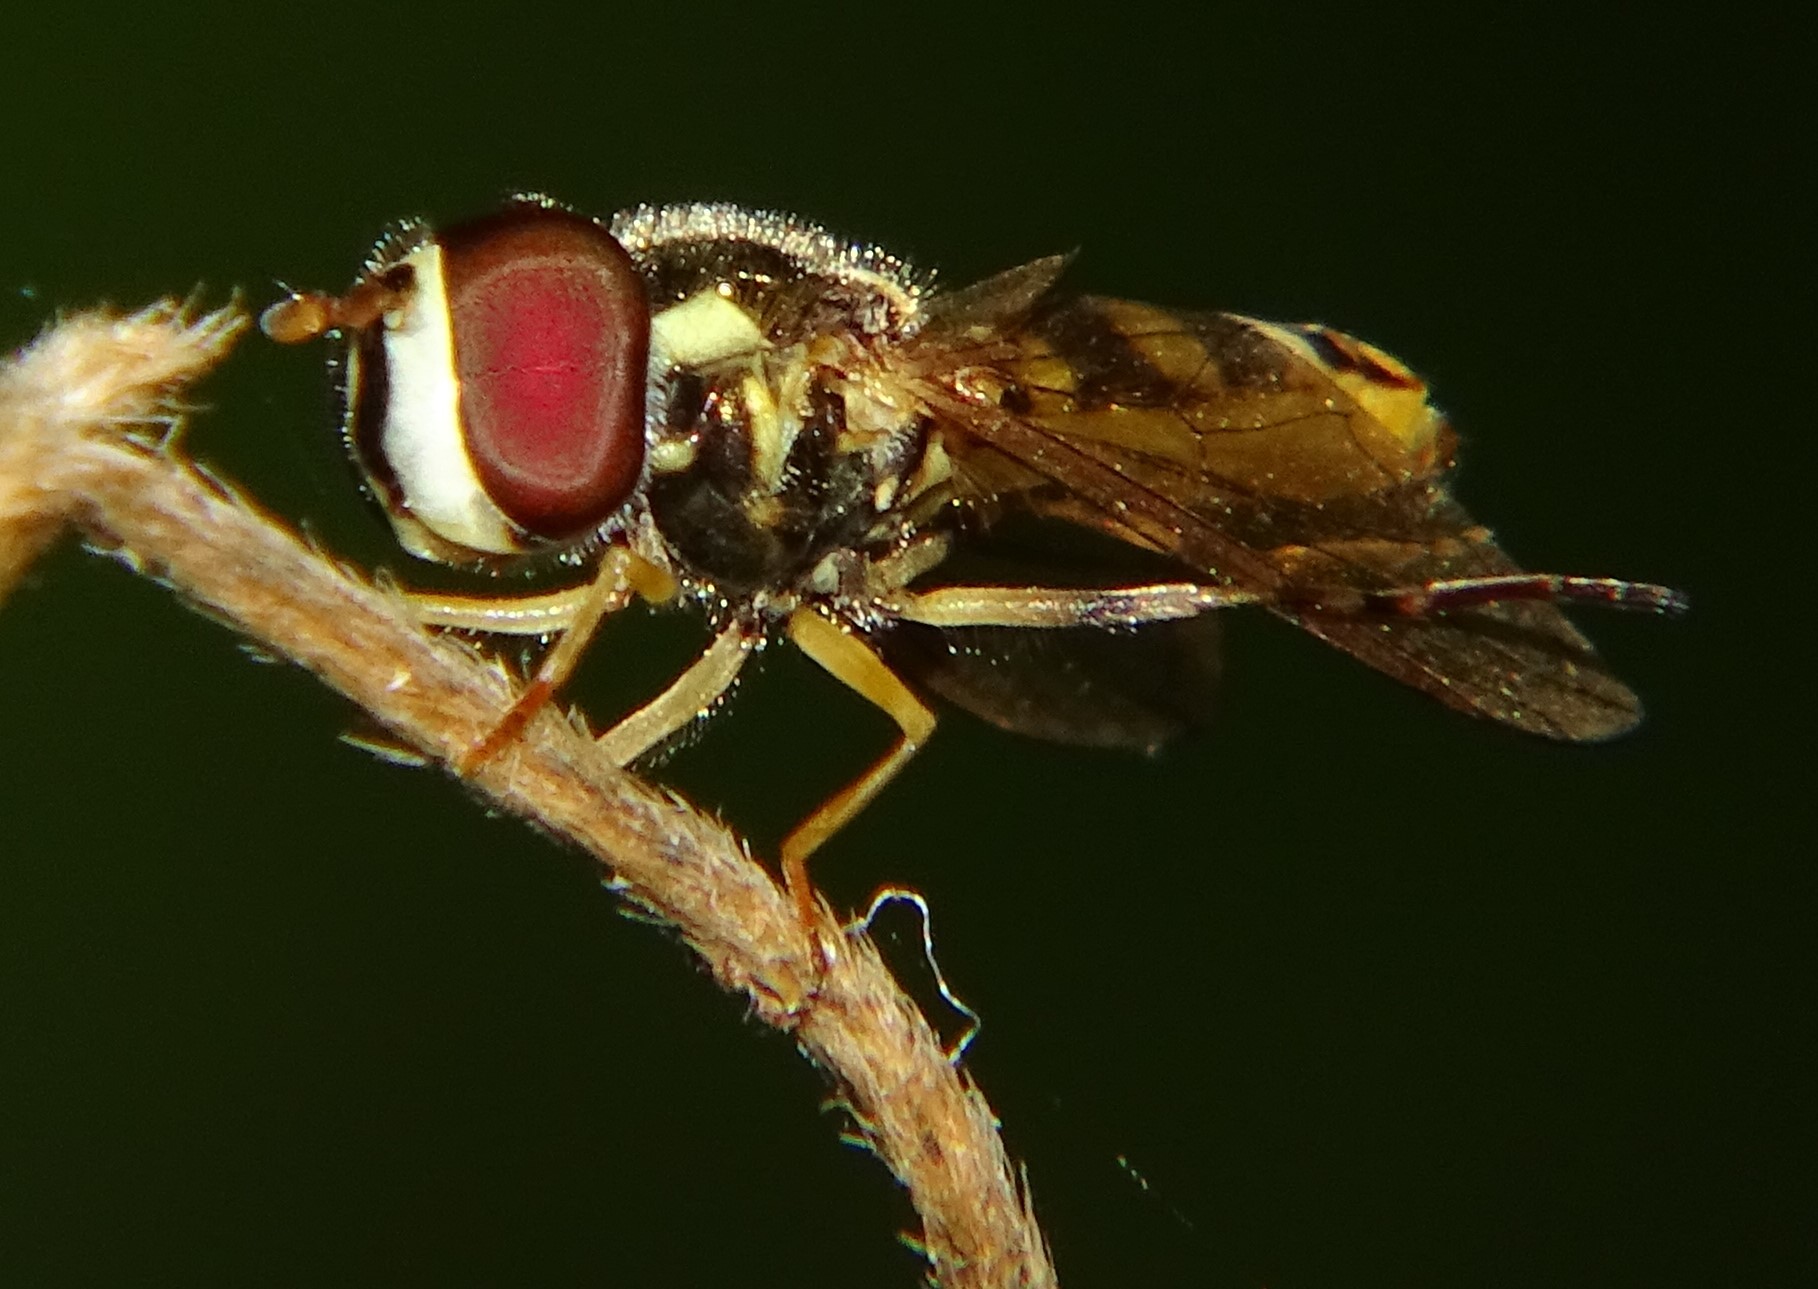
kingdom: Animalia
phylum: Arthropoda
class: Insecta
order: Diptera
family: Syrphidae
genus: Allograpta
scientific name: Allograpta exotica
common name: Syrphid fly
